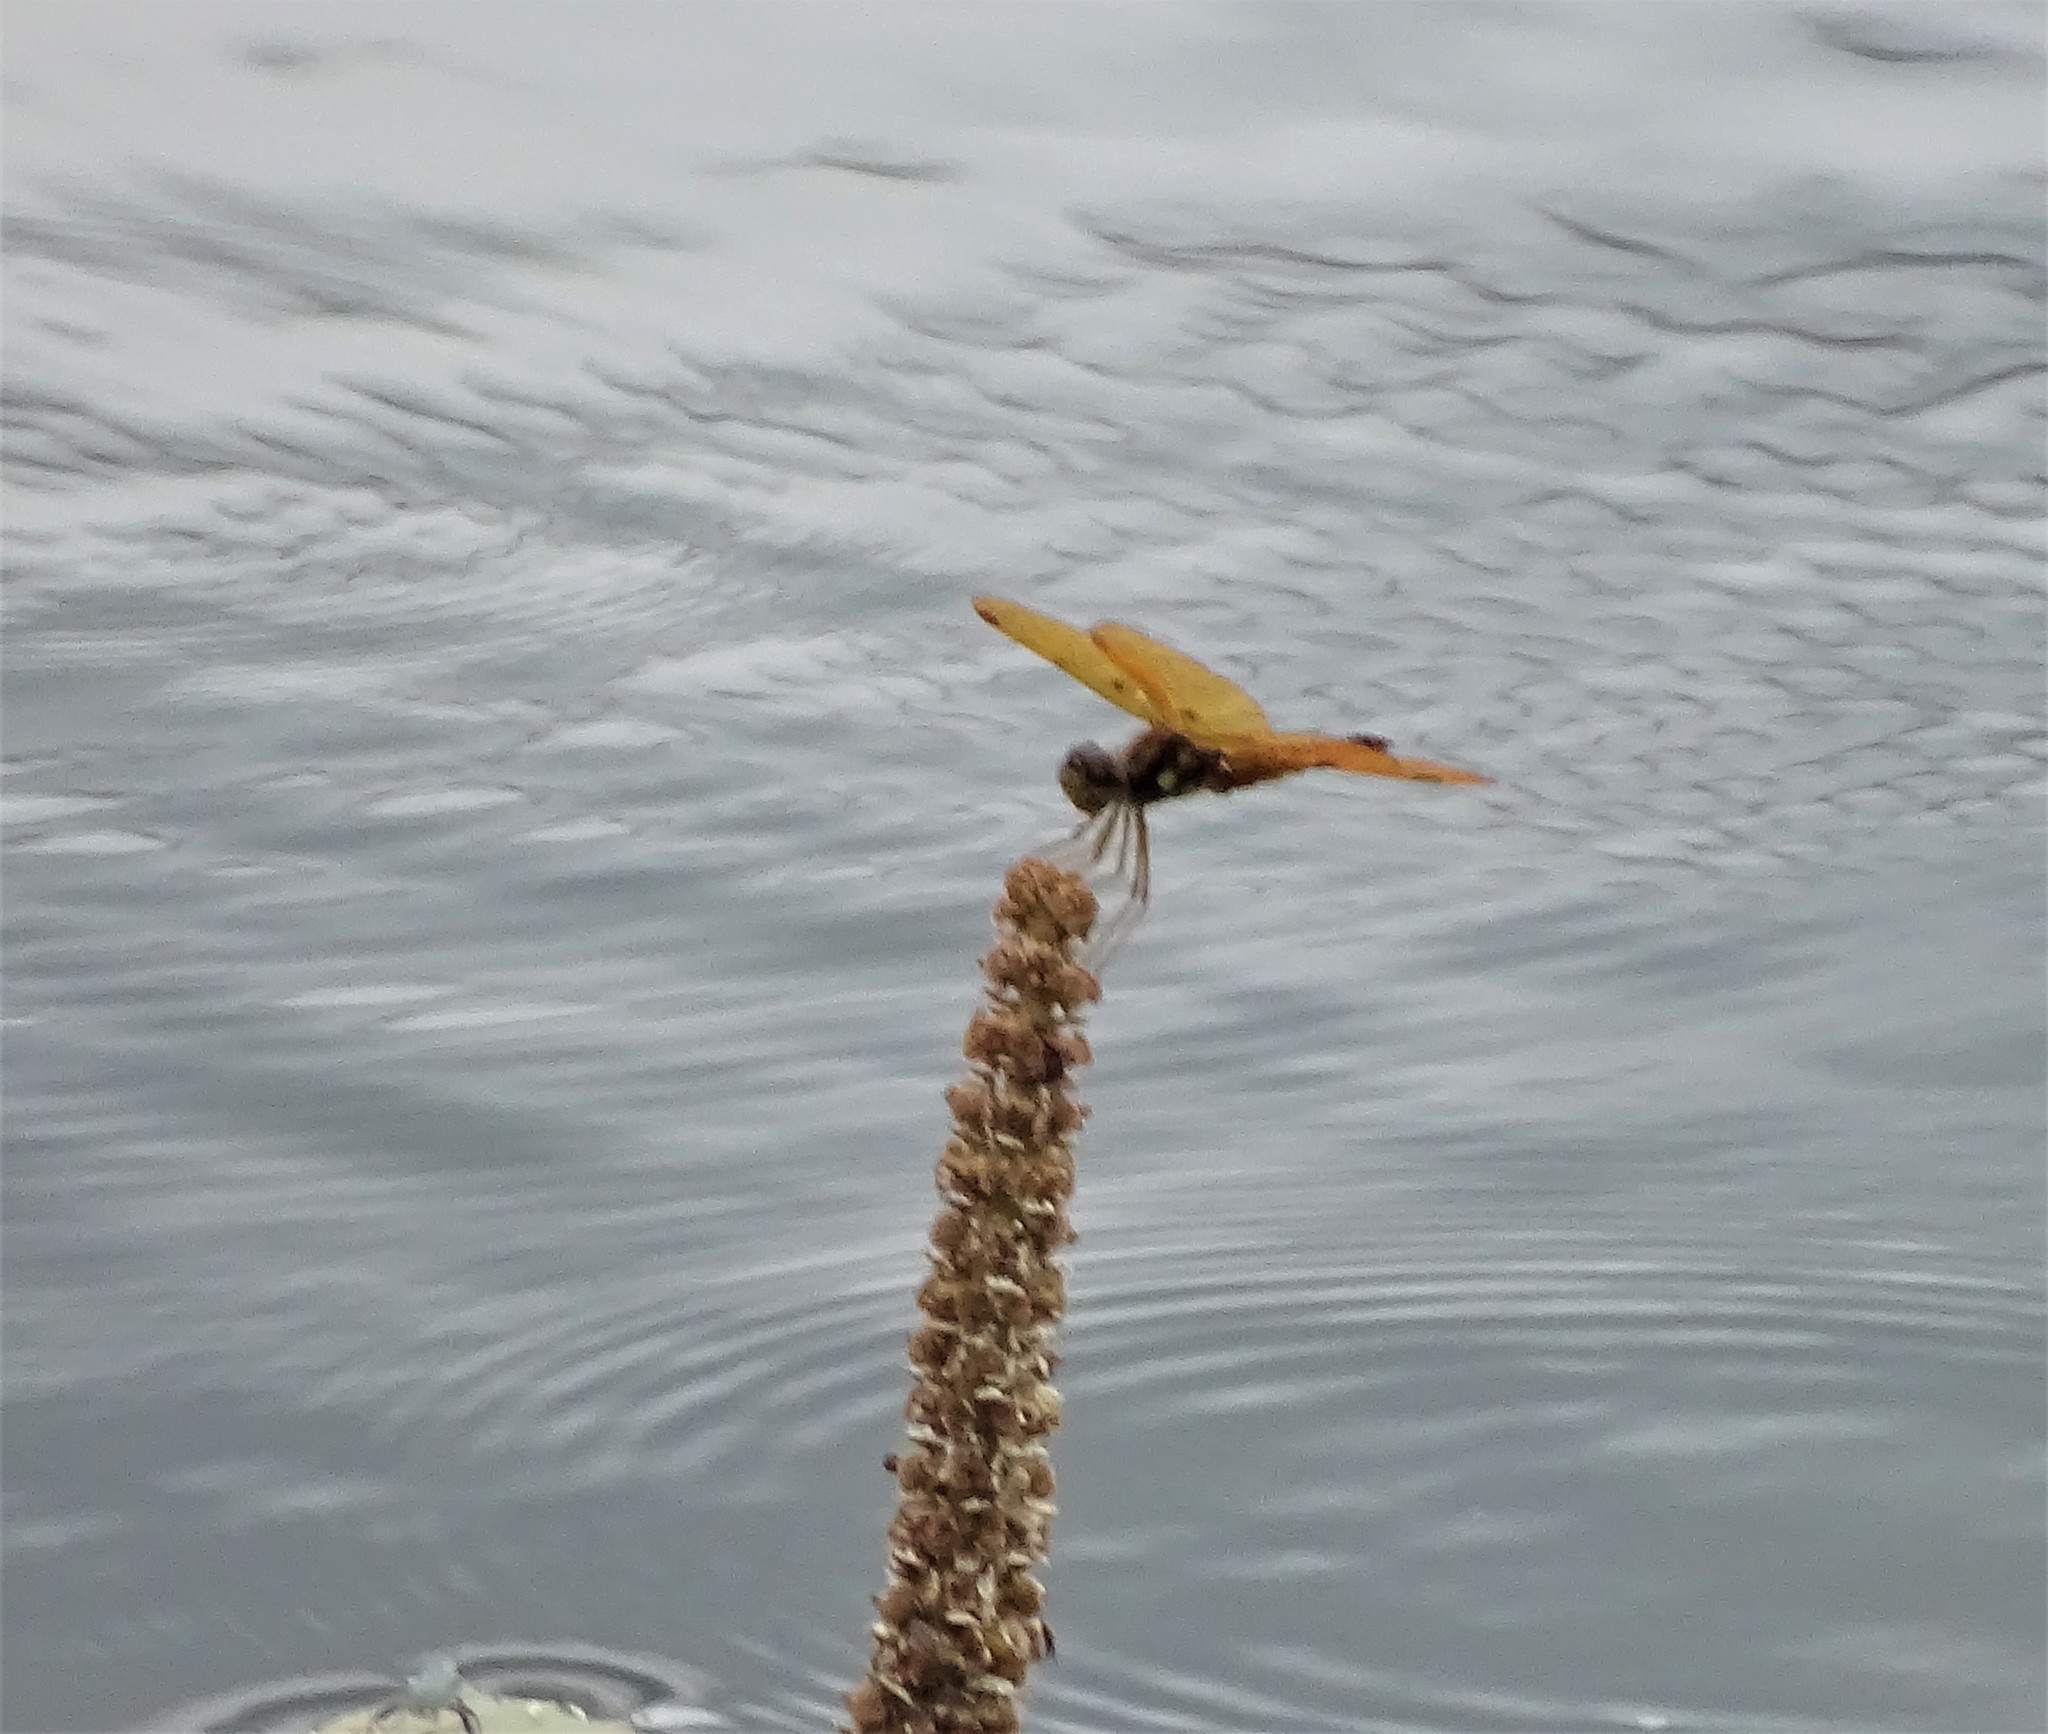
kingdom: Animalia
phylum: Arthropoda
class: Insecta
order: Odonata
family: Libellulidae
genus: Perithemis
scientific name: Perithemis tenera
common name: Eastern amberwing
